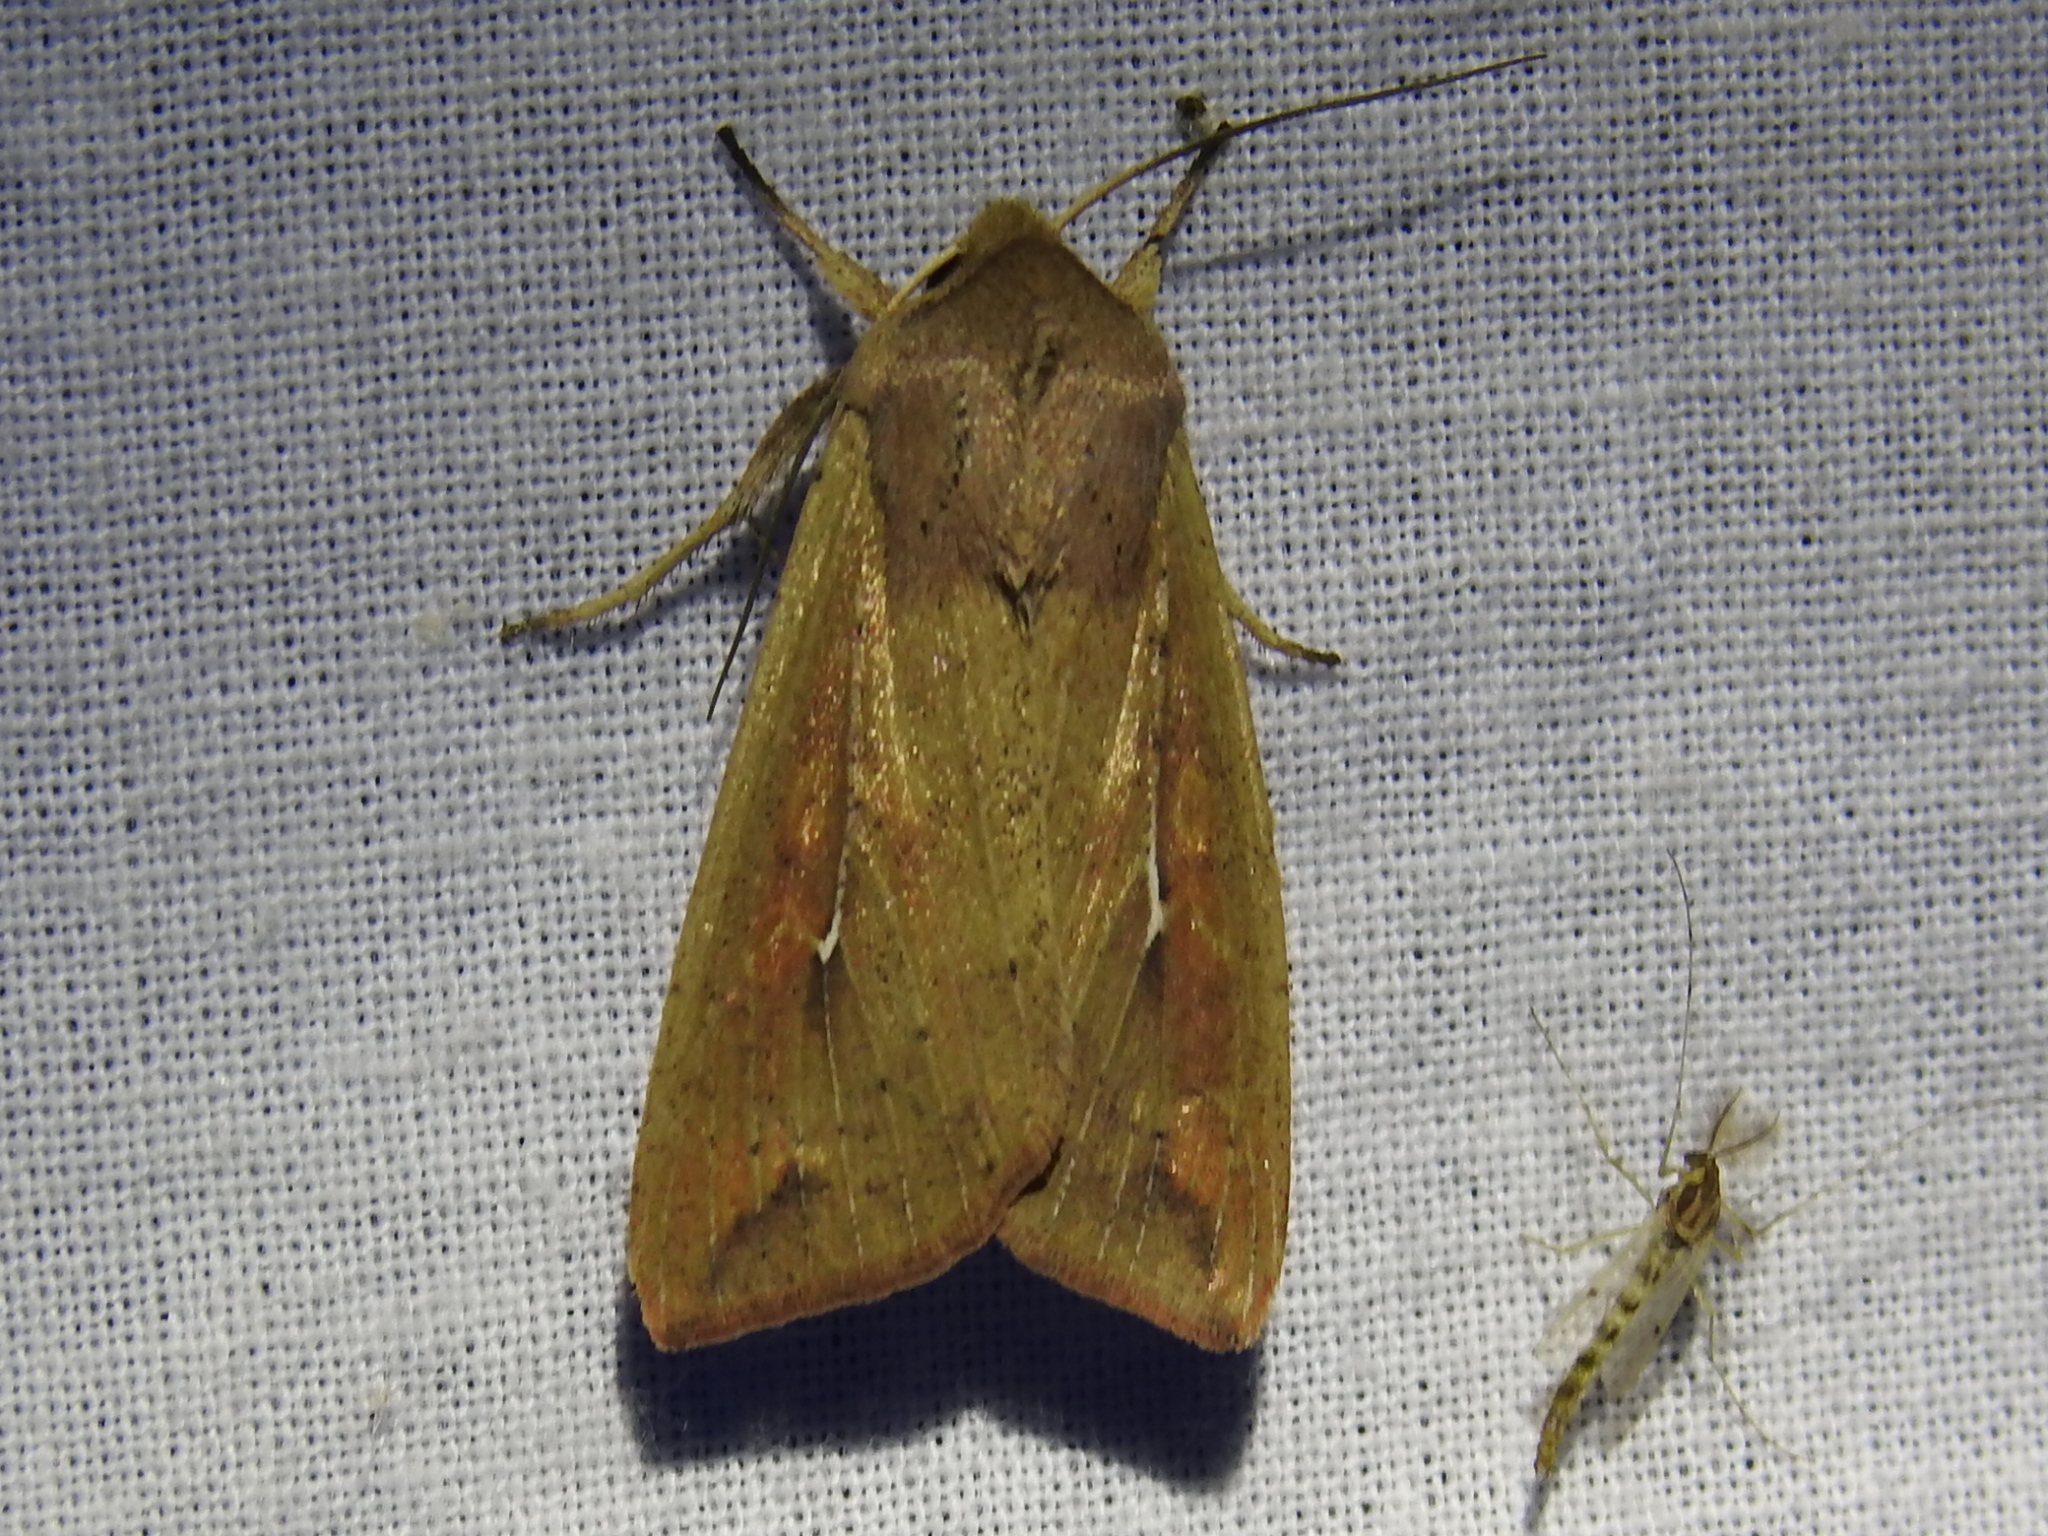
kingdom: Animalia
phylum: Arthropoda
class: Insecta
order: Lepidoptera
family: Noctuidae
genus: Mythimna
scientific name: Mythimna unipuncta
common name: White-speck
